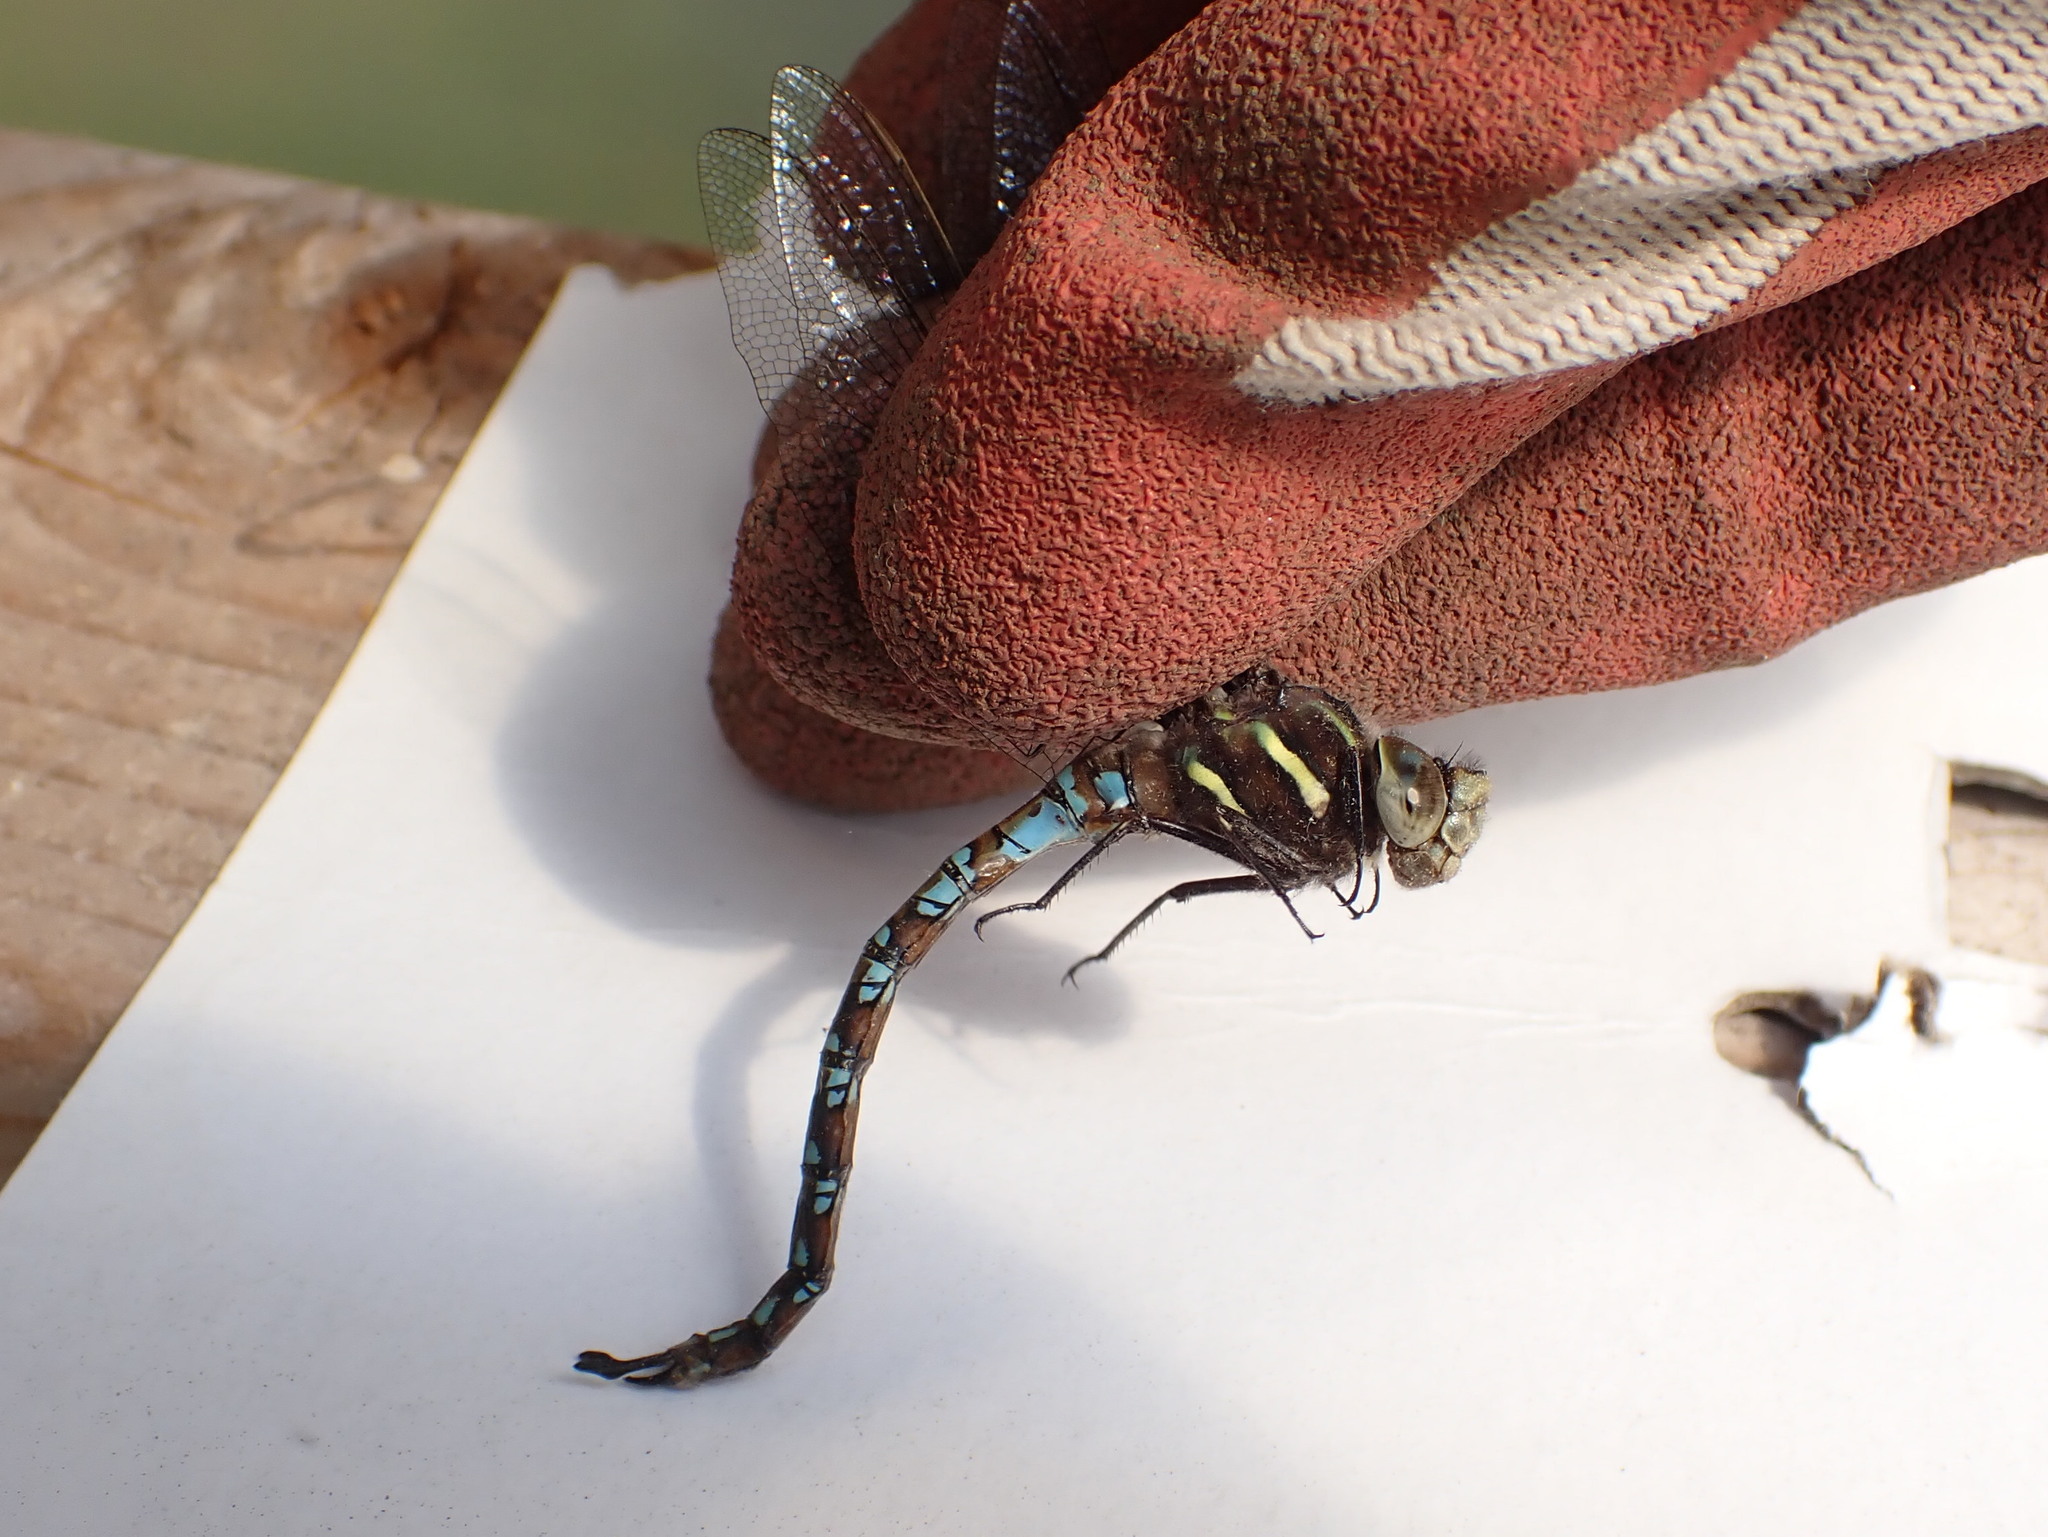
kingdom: Animalia
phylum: Arthropoda
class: Insecta
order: Odonata
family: Aeshnidae
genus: Basiaeschna
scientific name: Basiaeschna janata
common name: Springtime darner
